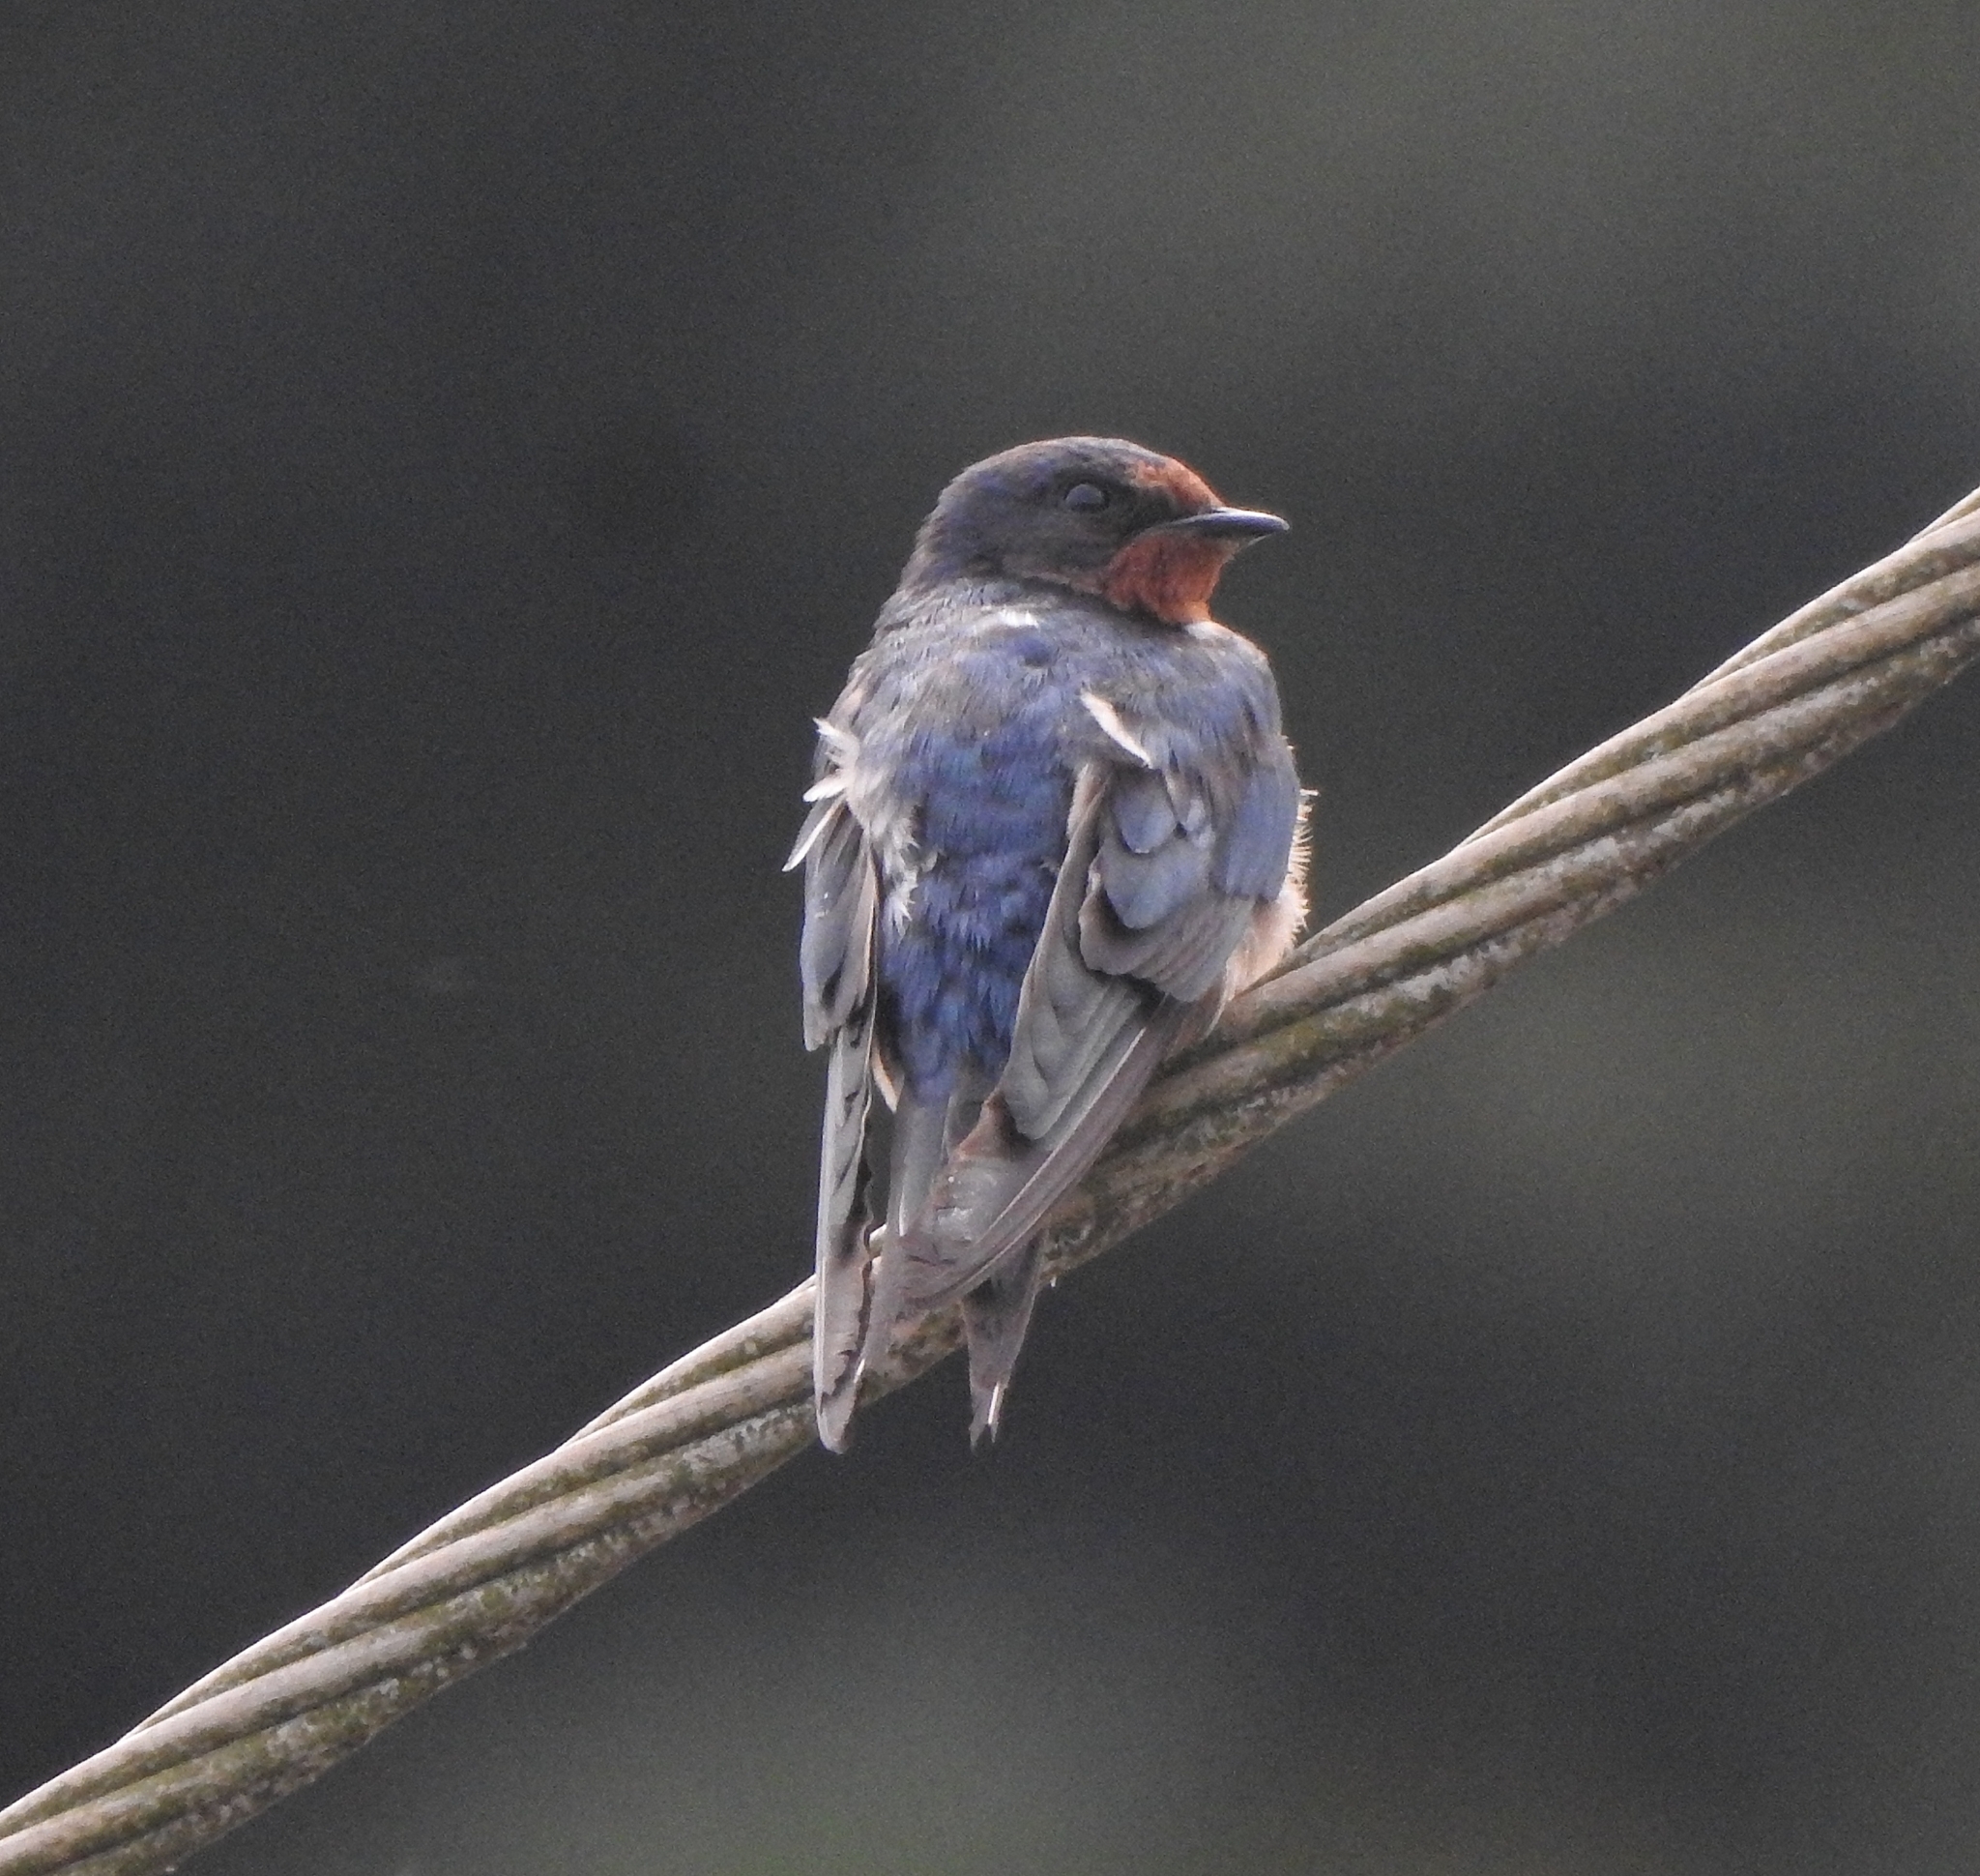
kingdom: Animalia
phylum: Chordata
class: Aves
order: Passeriformes
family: Hirundinidae
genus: Hirundo
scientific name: Hirundo rustica
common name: Barn swallow
